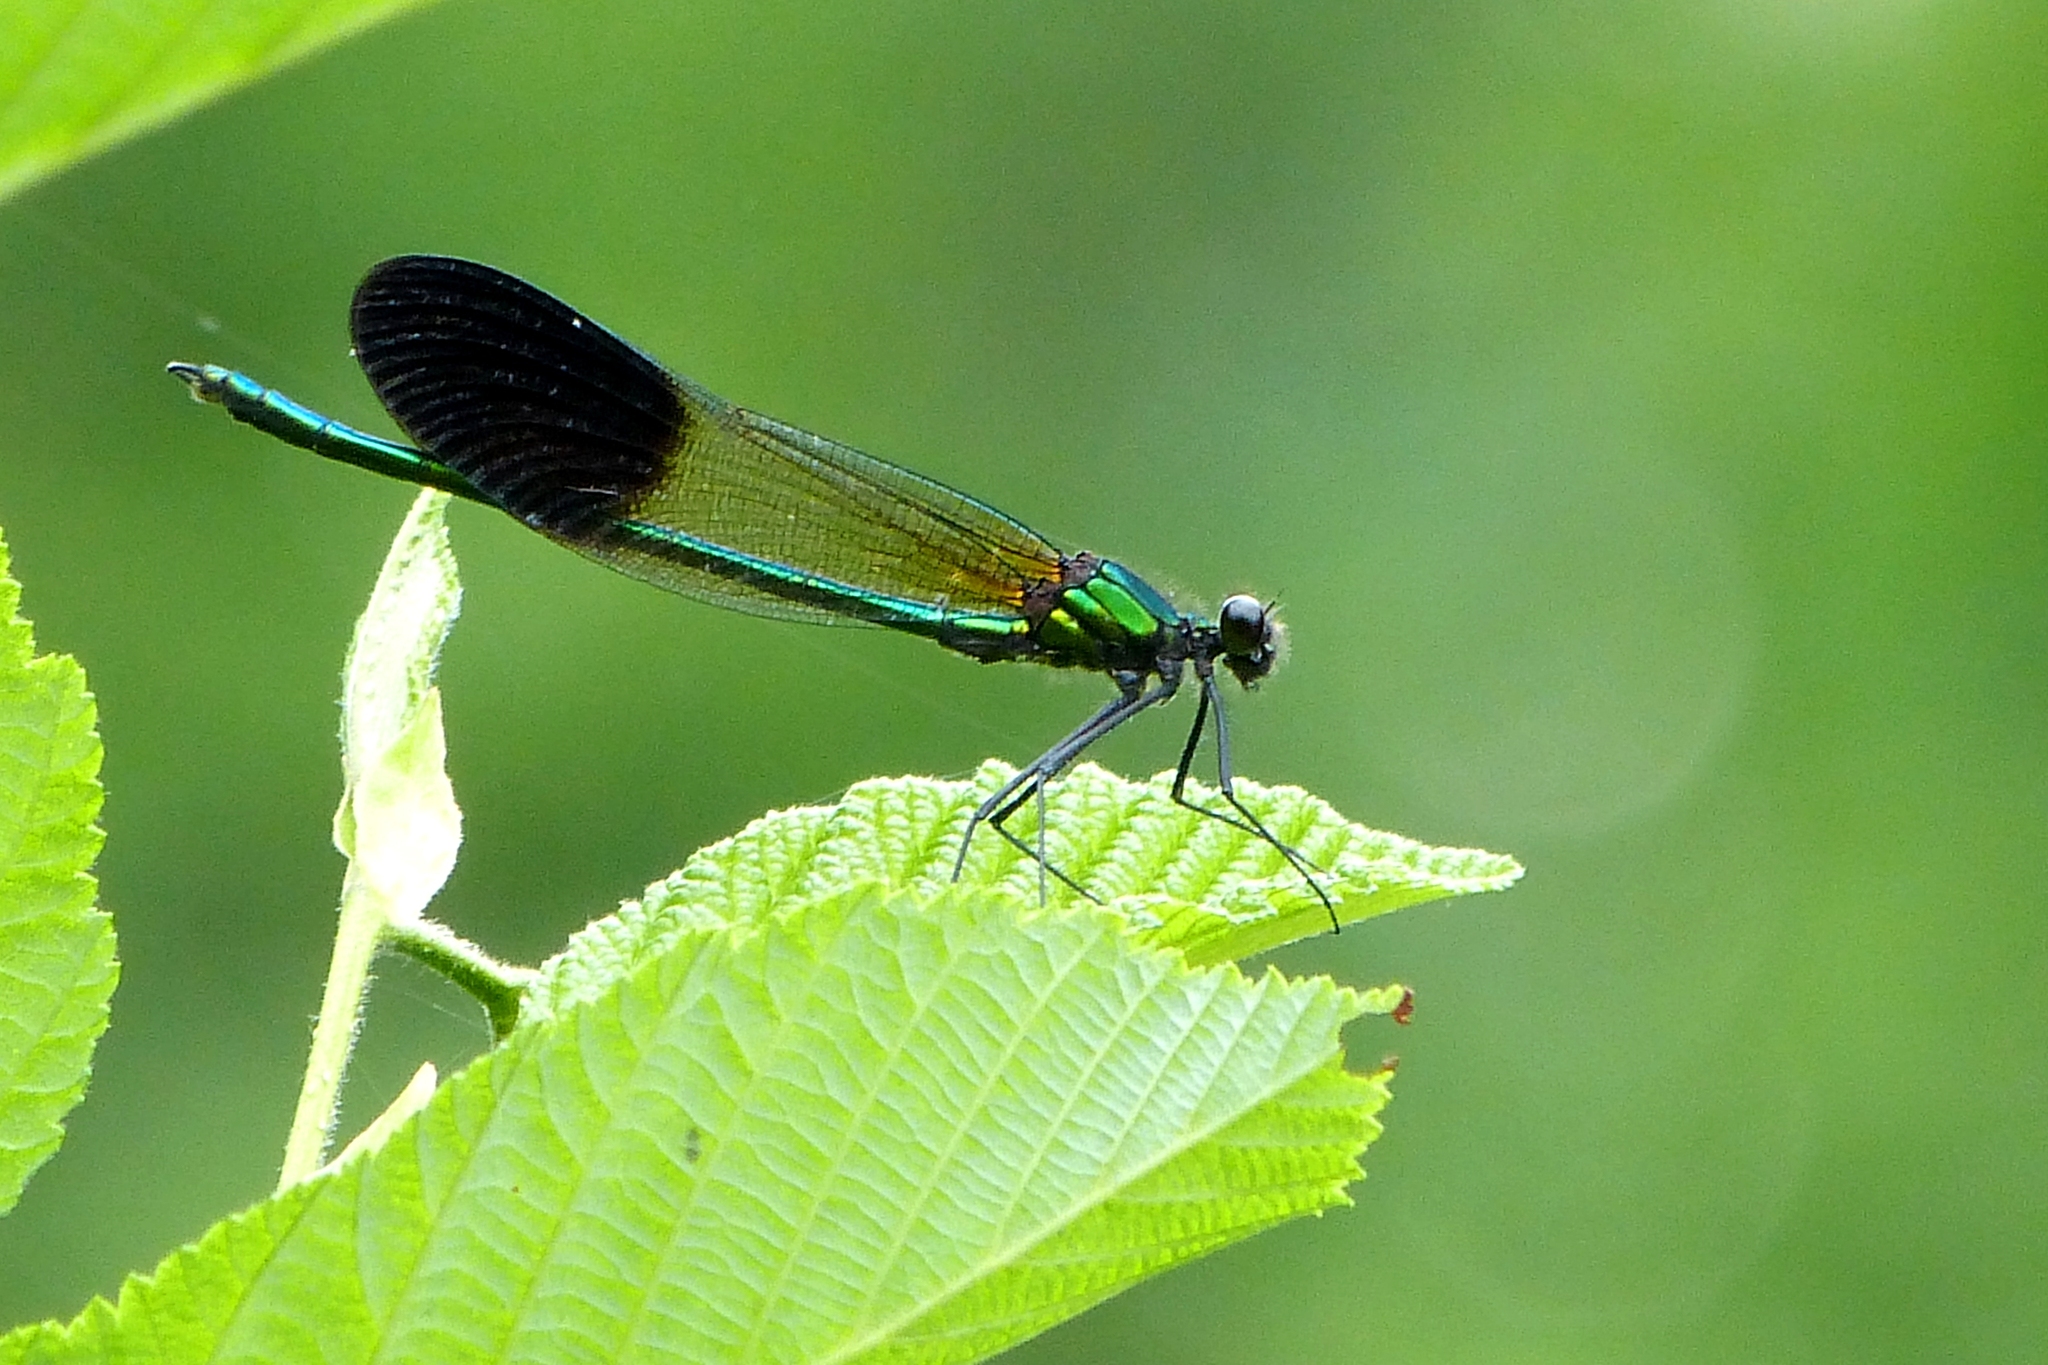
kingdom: Animalia
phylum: Arthropoda
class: Insecta
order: Odonata
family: Calopterygidae
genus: Calopteryx
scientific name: Calopteryx aequabilis
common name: River jewelwing
